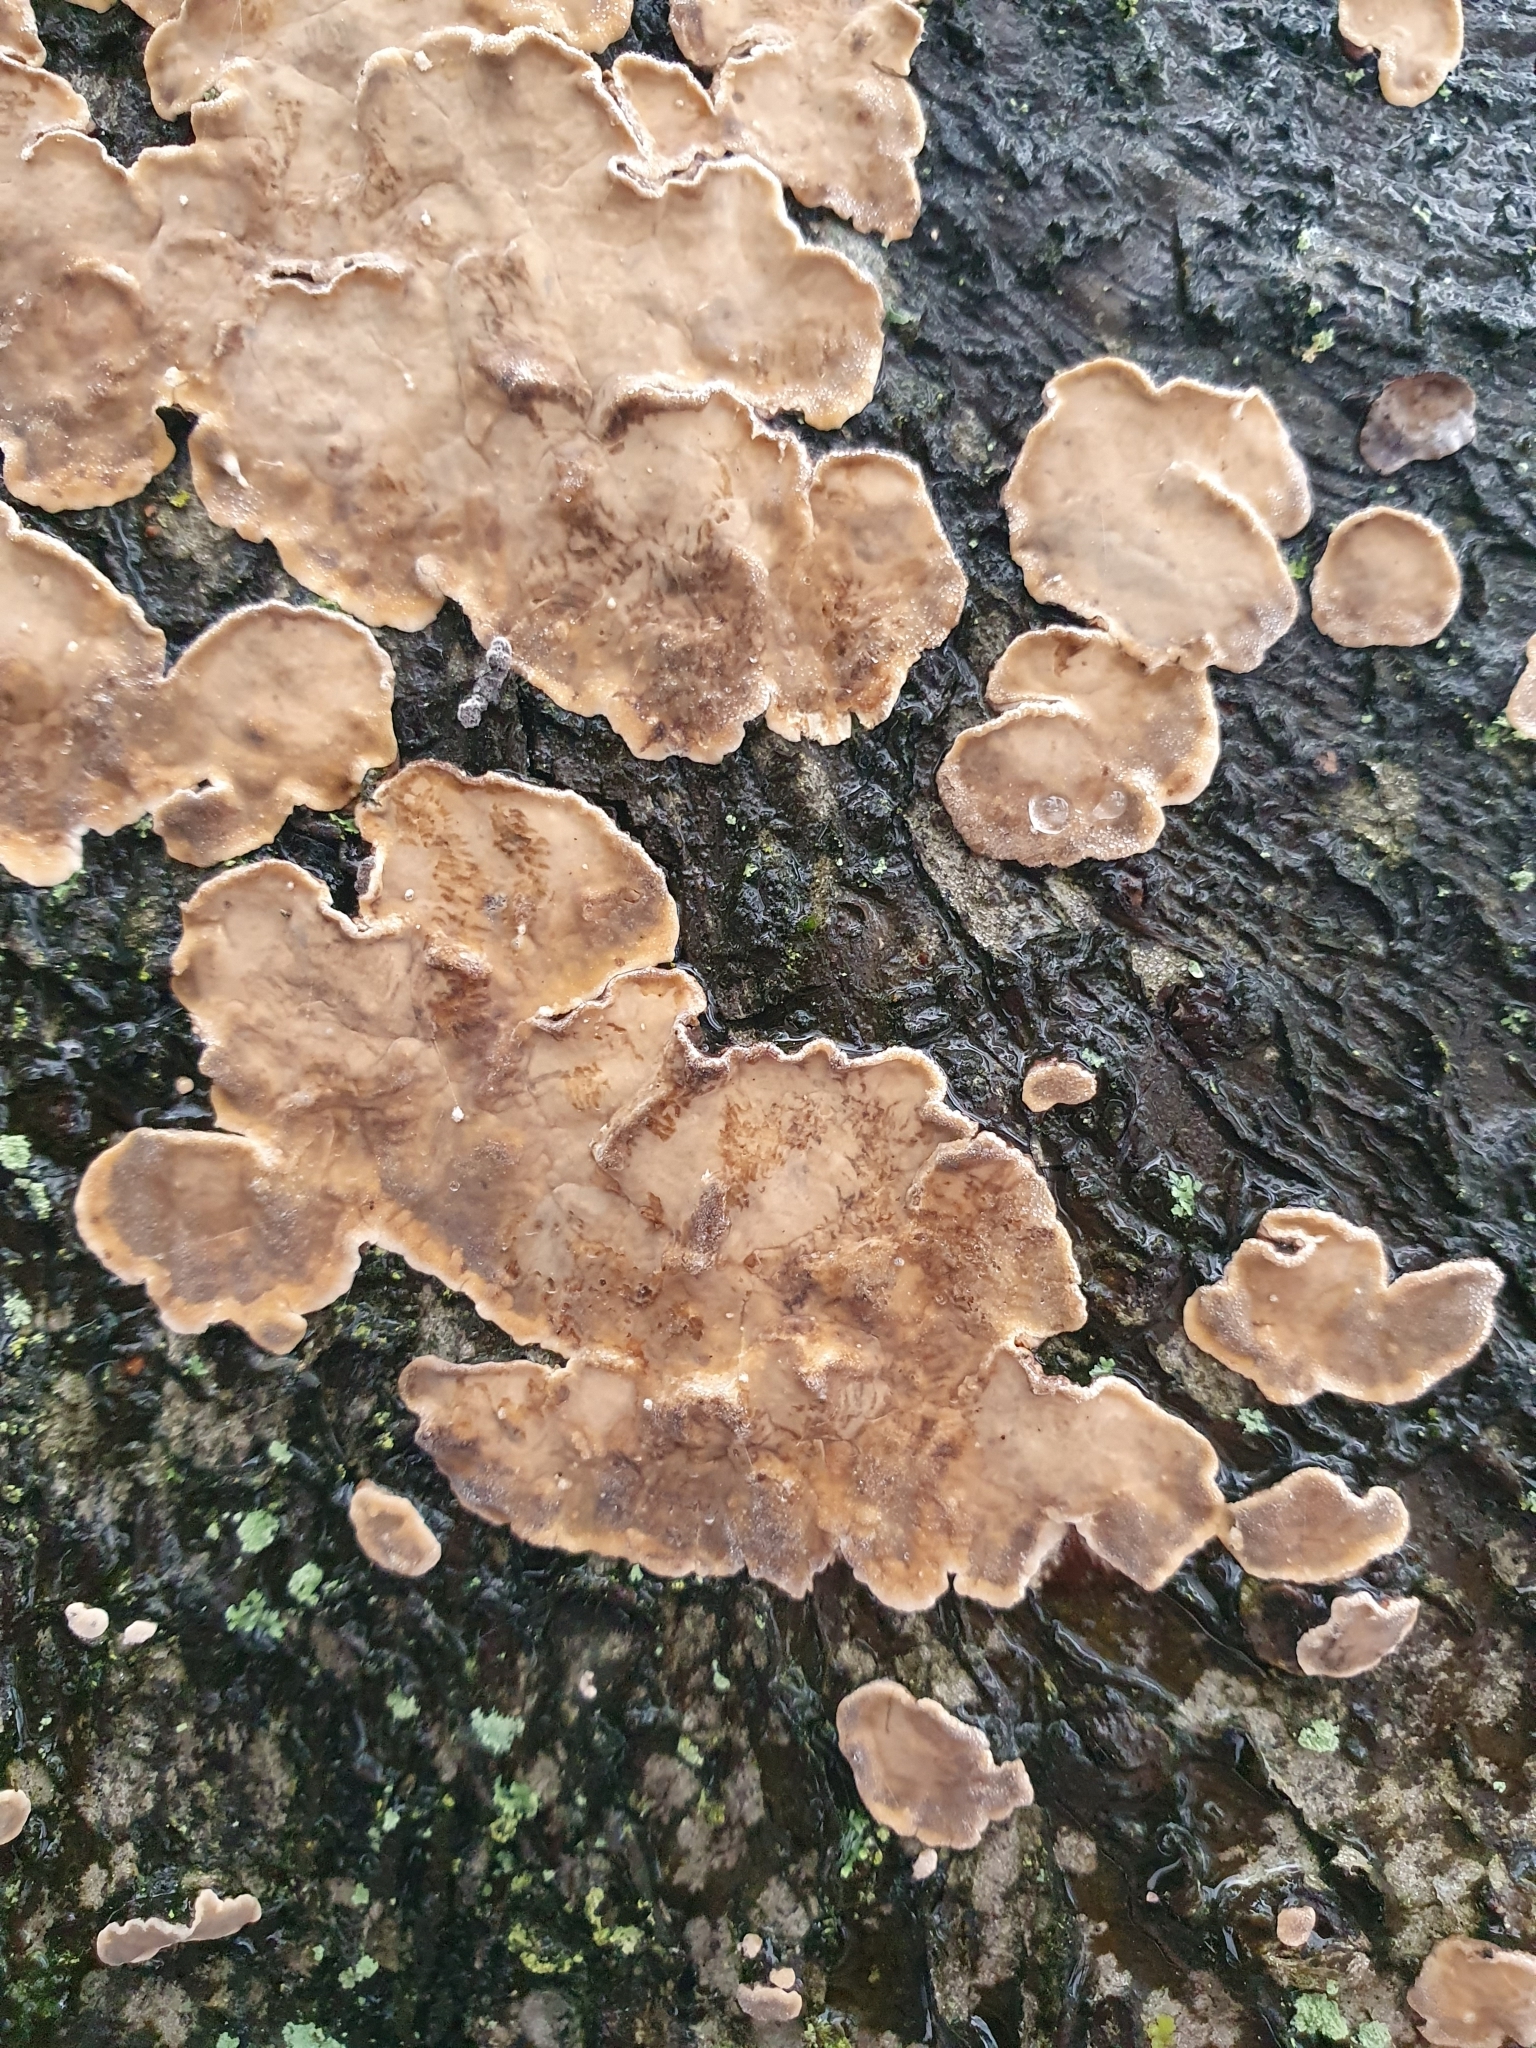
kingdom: Fungi
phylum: Basidiomycota
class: Agaricomycetes
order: Russulales
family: Stereaceae
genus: Stereum
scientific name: Stereum rugosum
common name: Bleeding broadleaf crust
